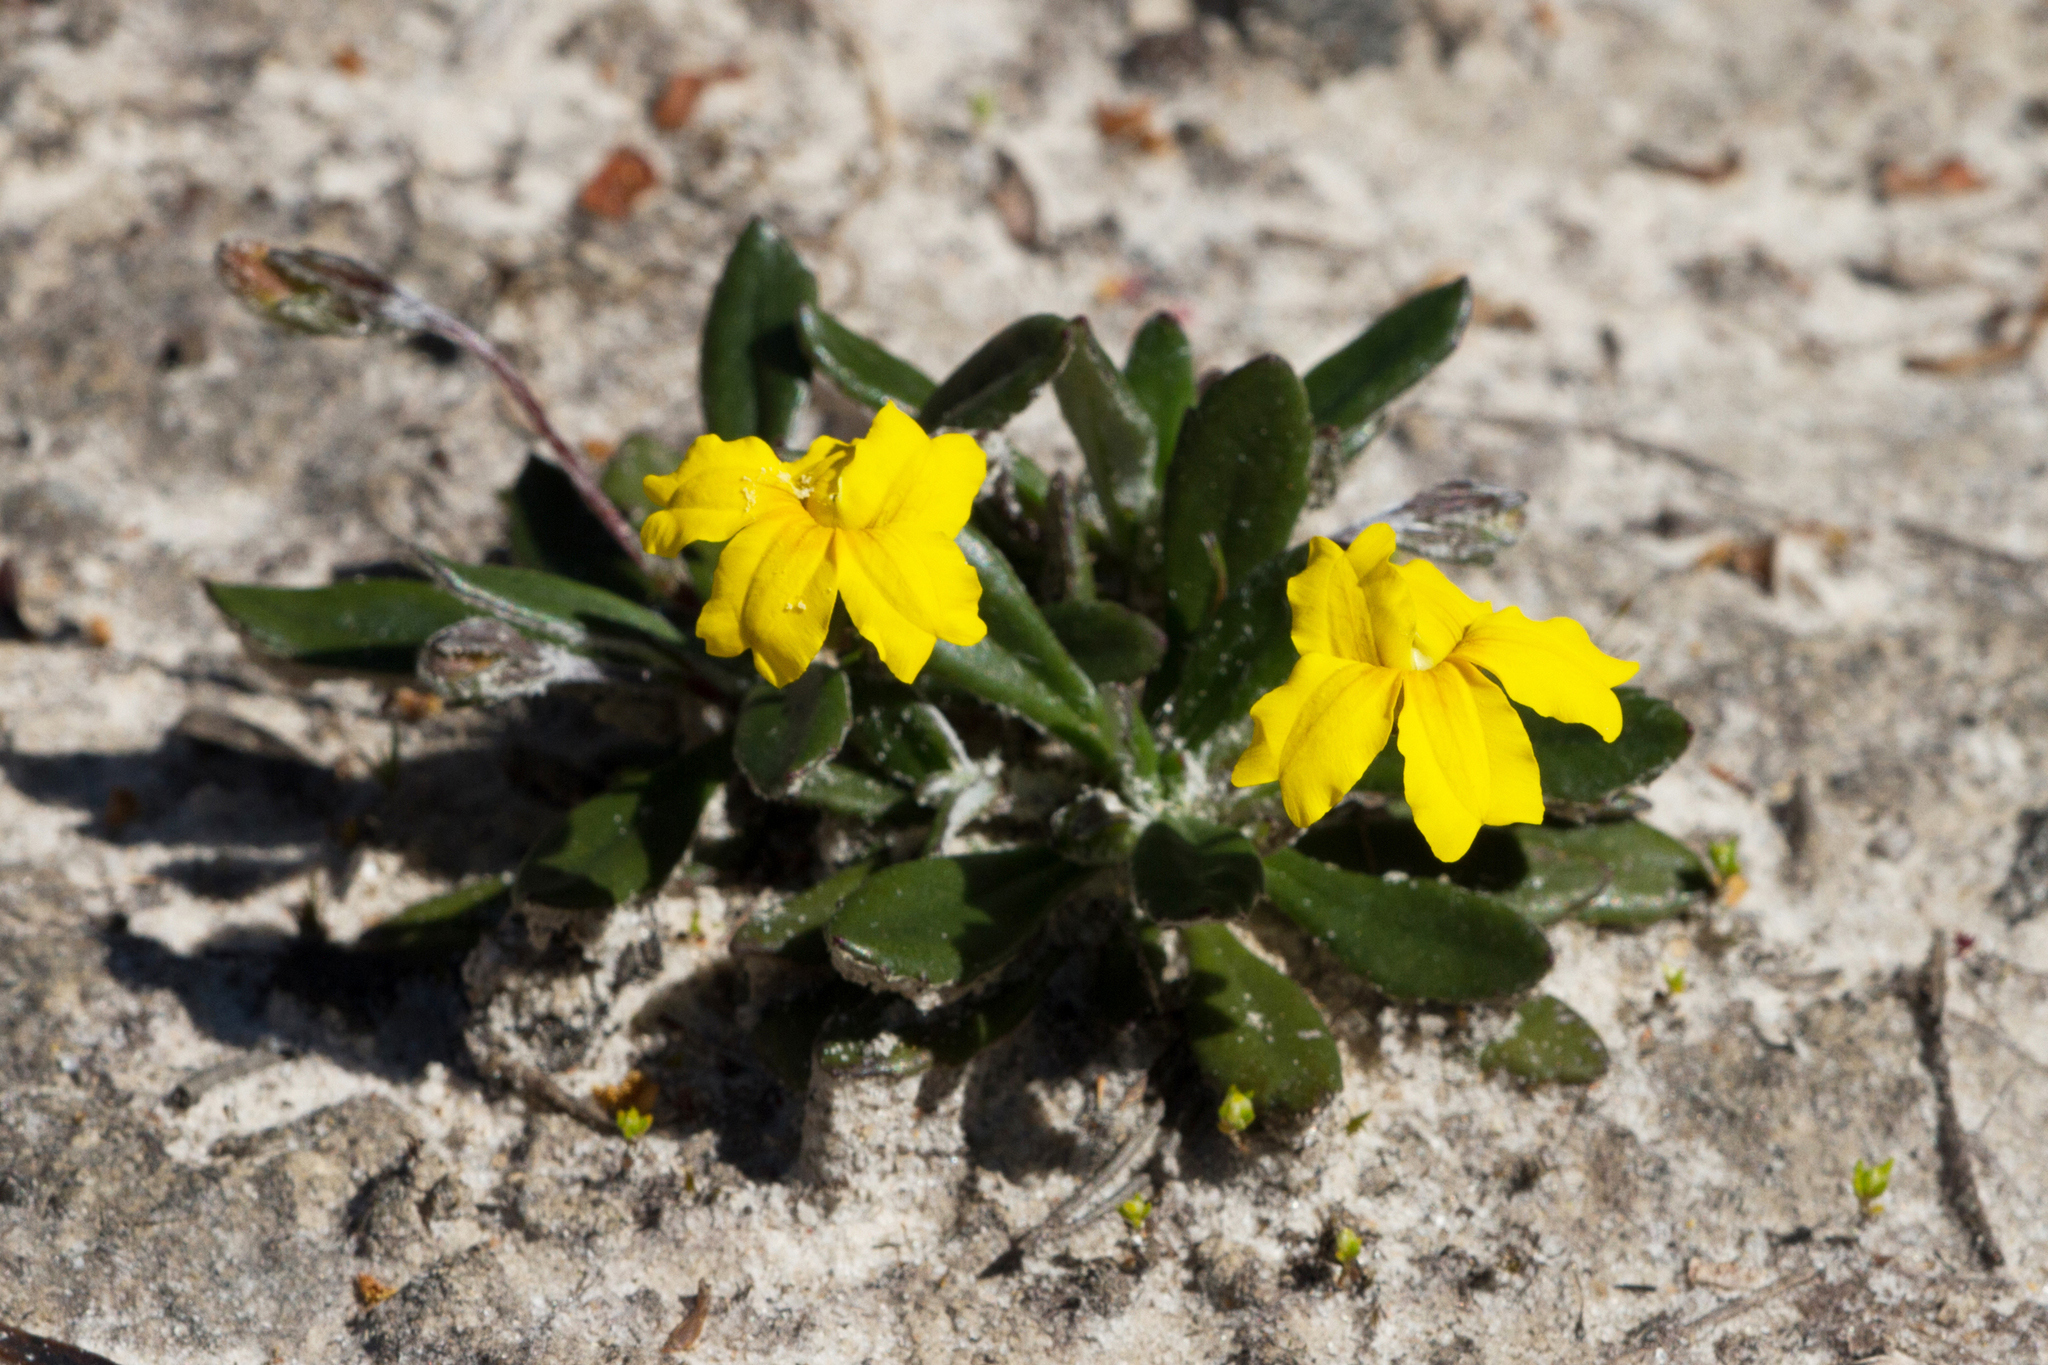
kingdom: Plantae
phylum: Tracheophyta
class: Magnoliopsida
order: Asterales
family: Goodeniaceae
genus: Goodenia
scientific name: Goodenia blackiana
